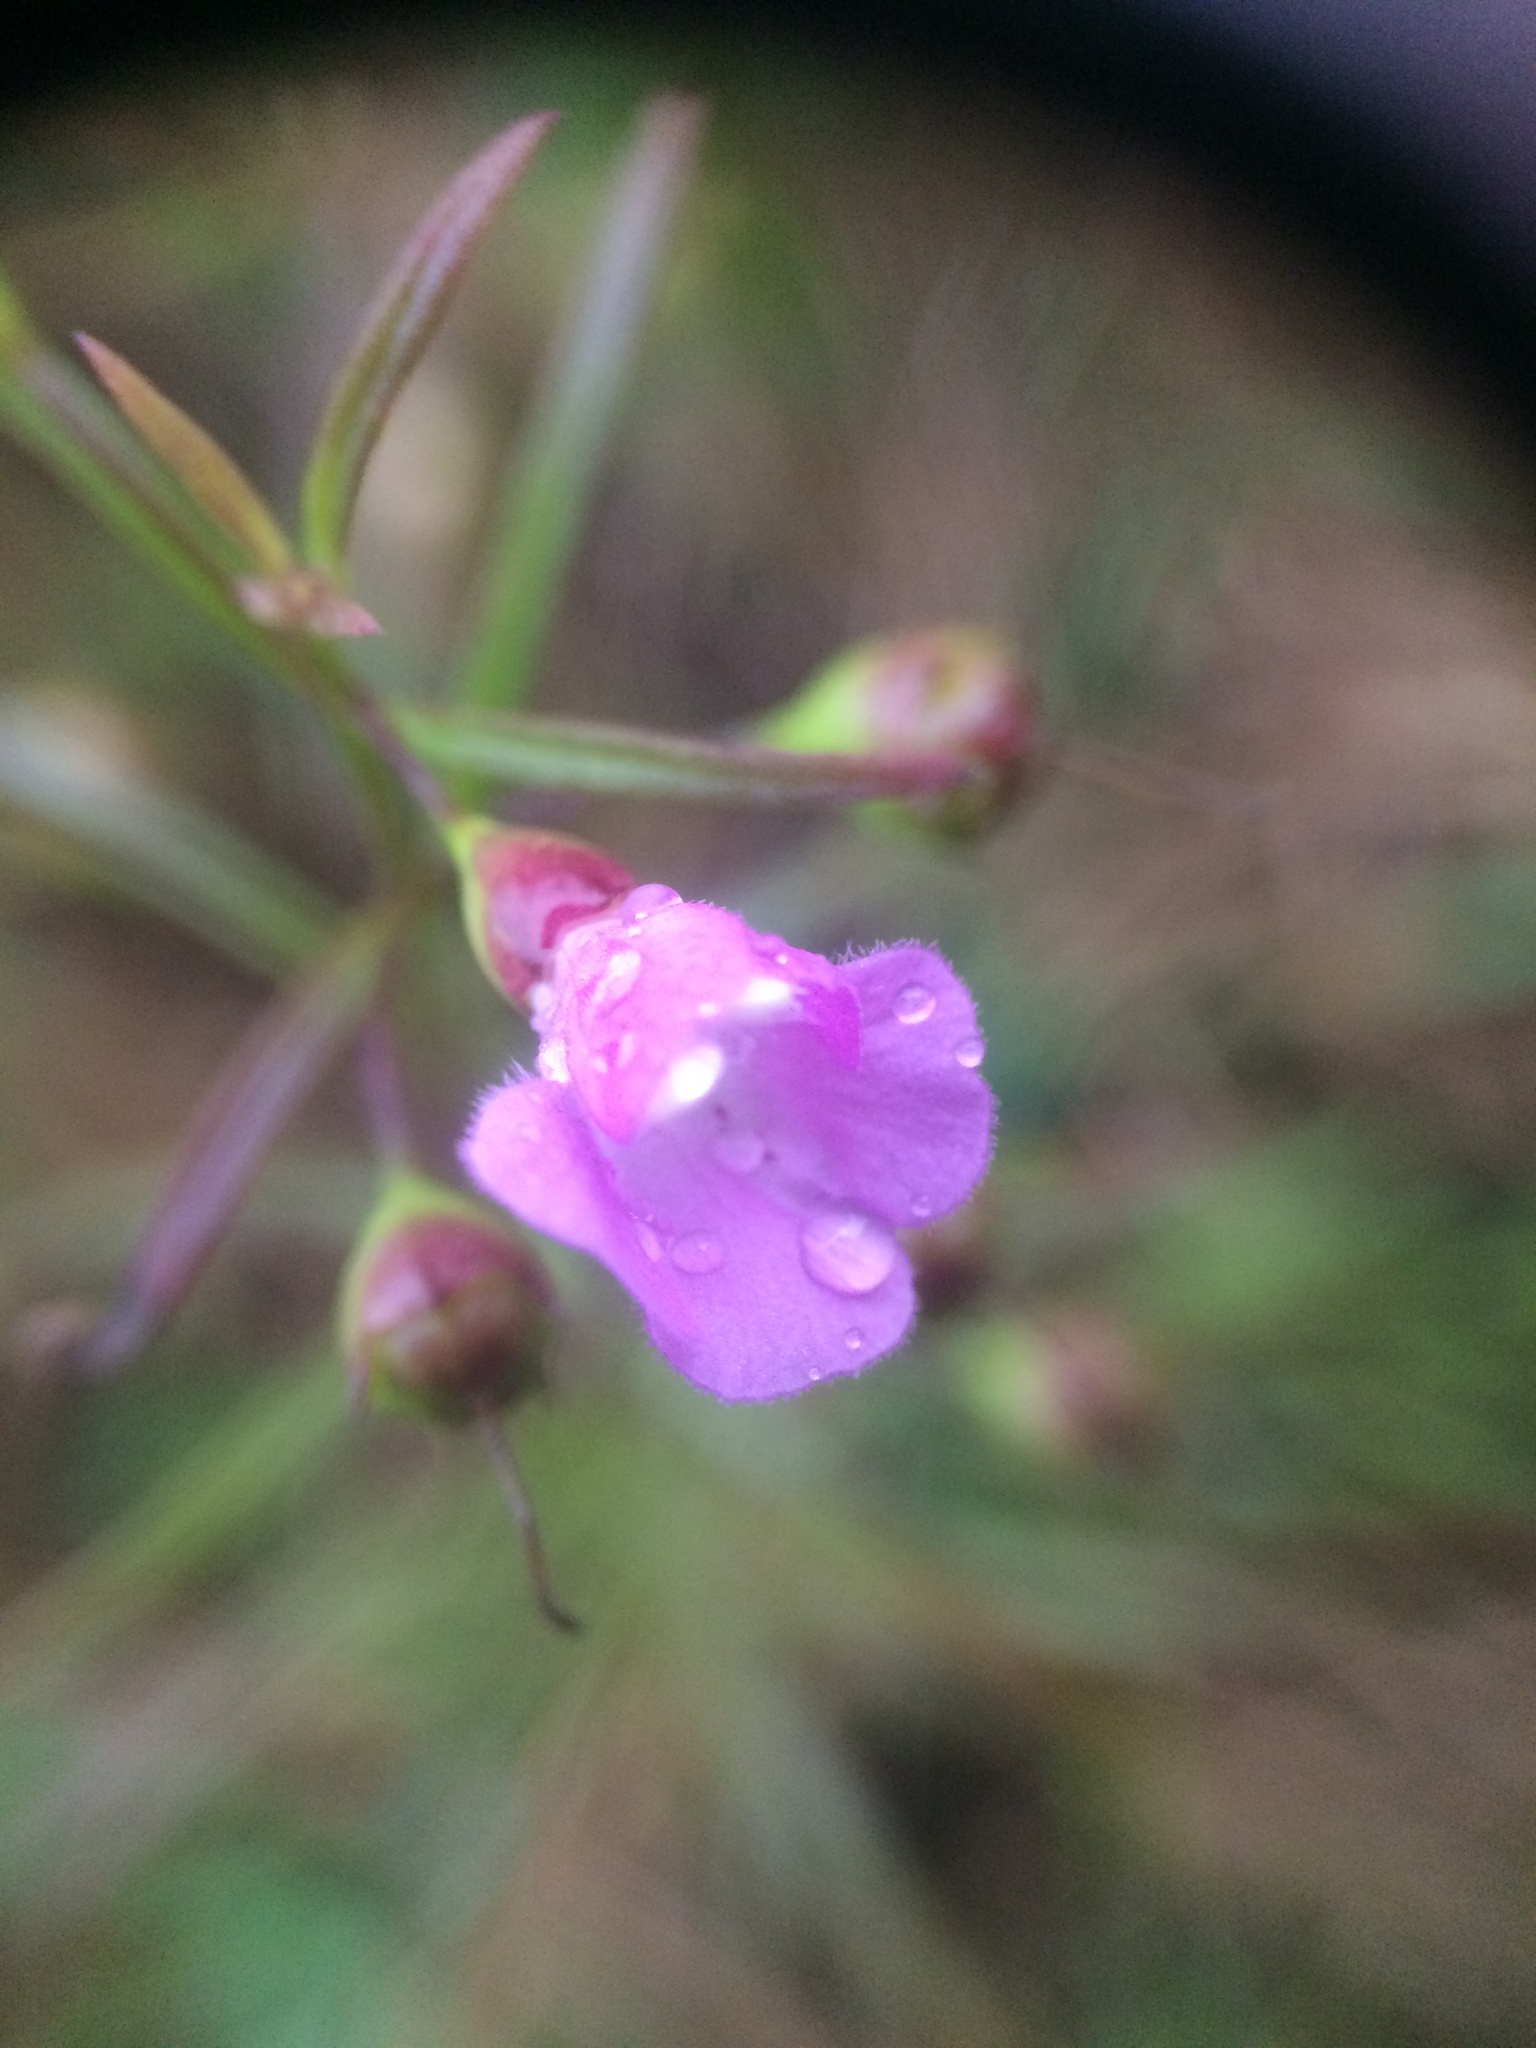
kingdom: Plantae
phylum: Tracheophyta
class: Magnoliopsida
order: Lamiales
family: Orobanchaceae
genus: Agalinis
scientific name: Agalinis tenuifolia
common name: Slender agalinis
